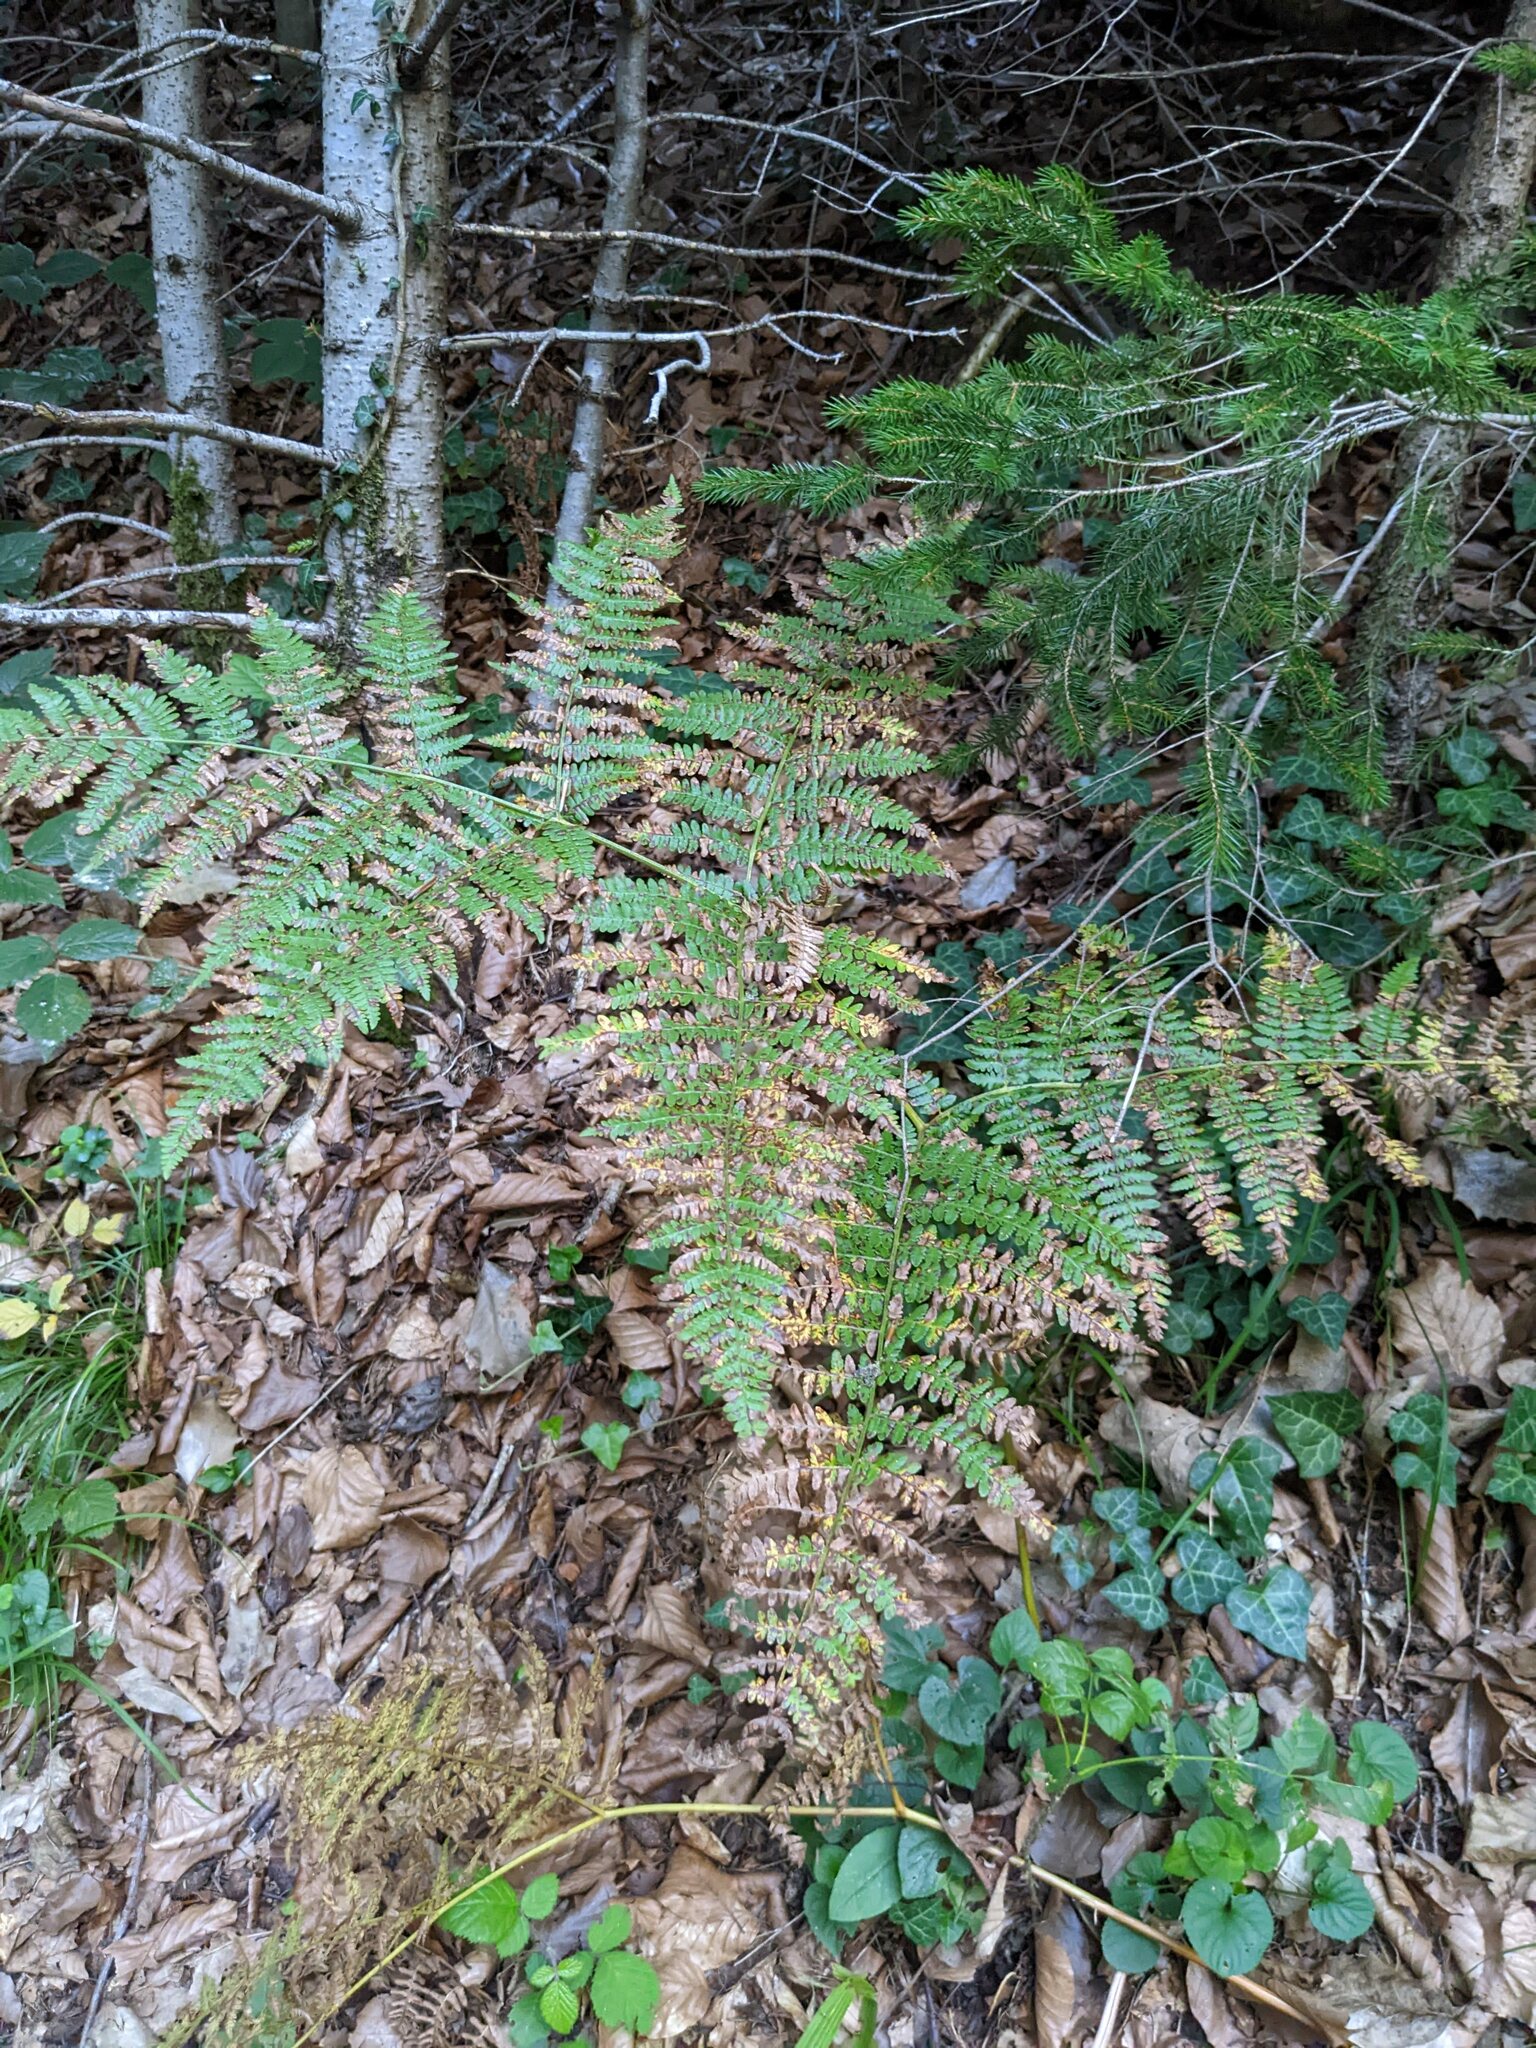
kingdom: Plantae
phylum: Tracheophyta
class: Polypodiopsida
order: Polypodiales
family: Dennstaedtiaceae
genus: Pteridium
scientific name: Pteridium aquilinum
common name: Bracken
